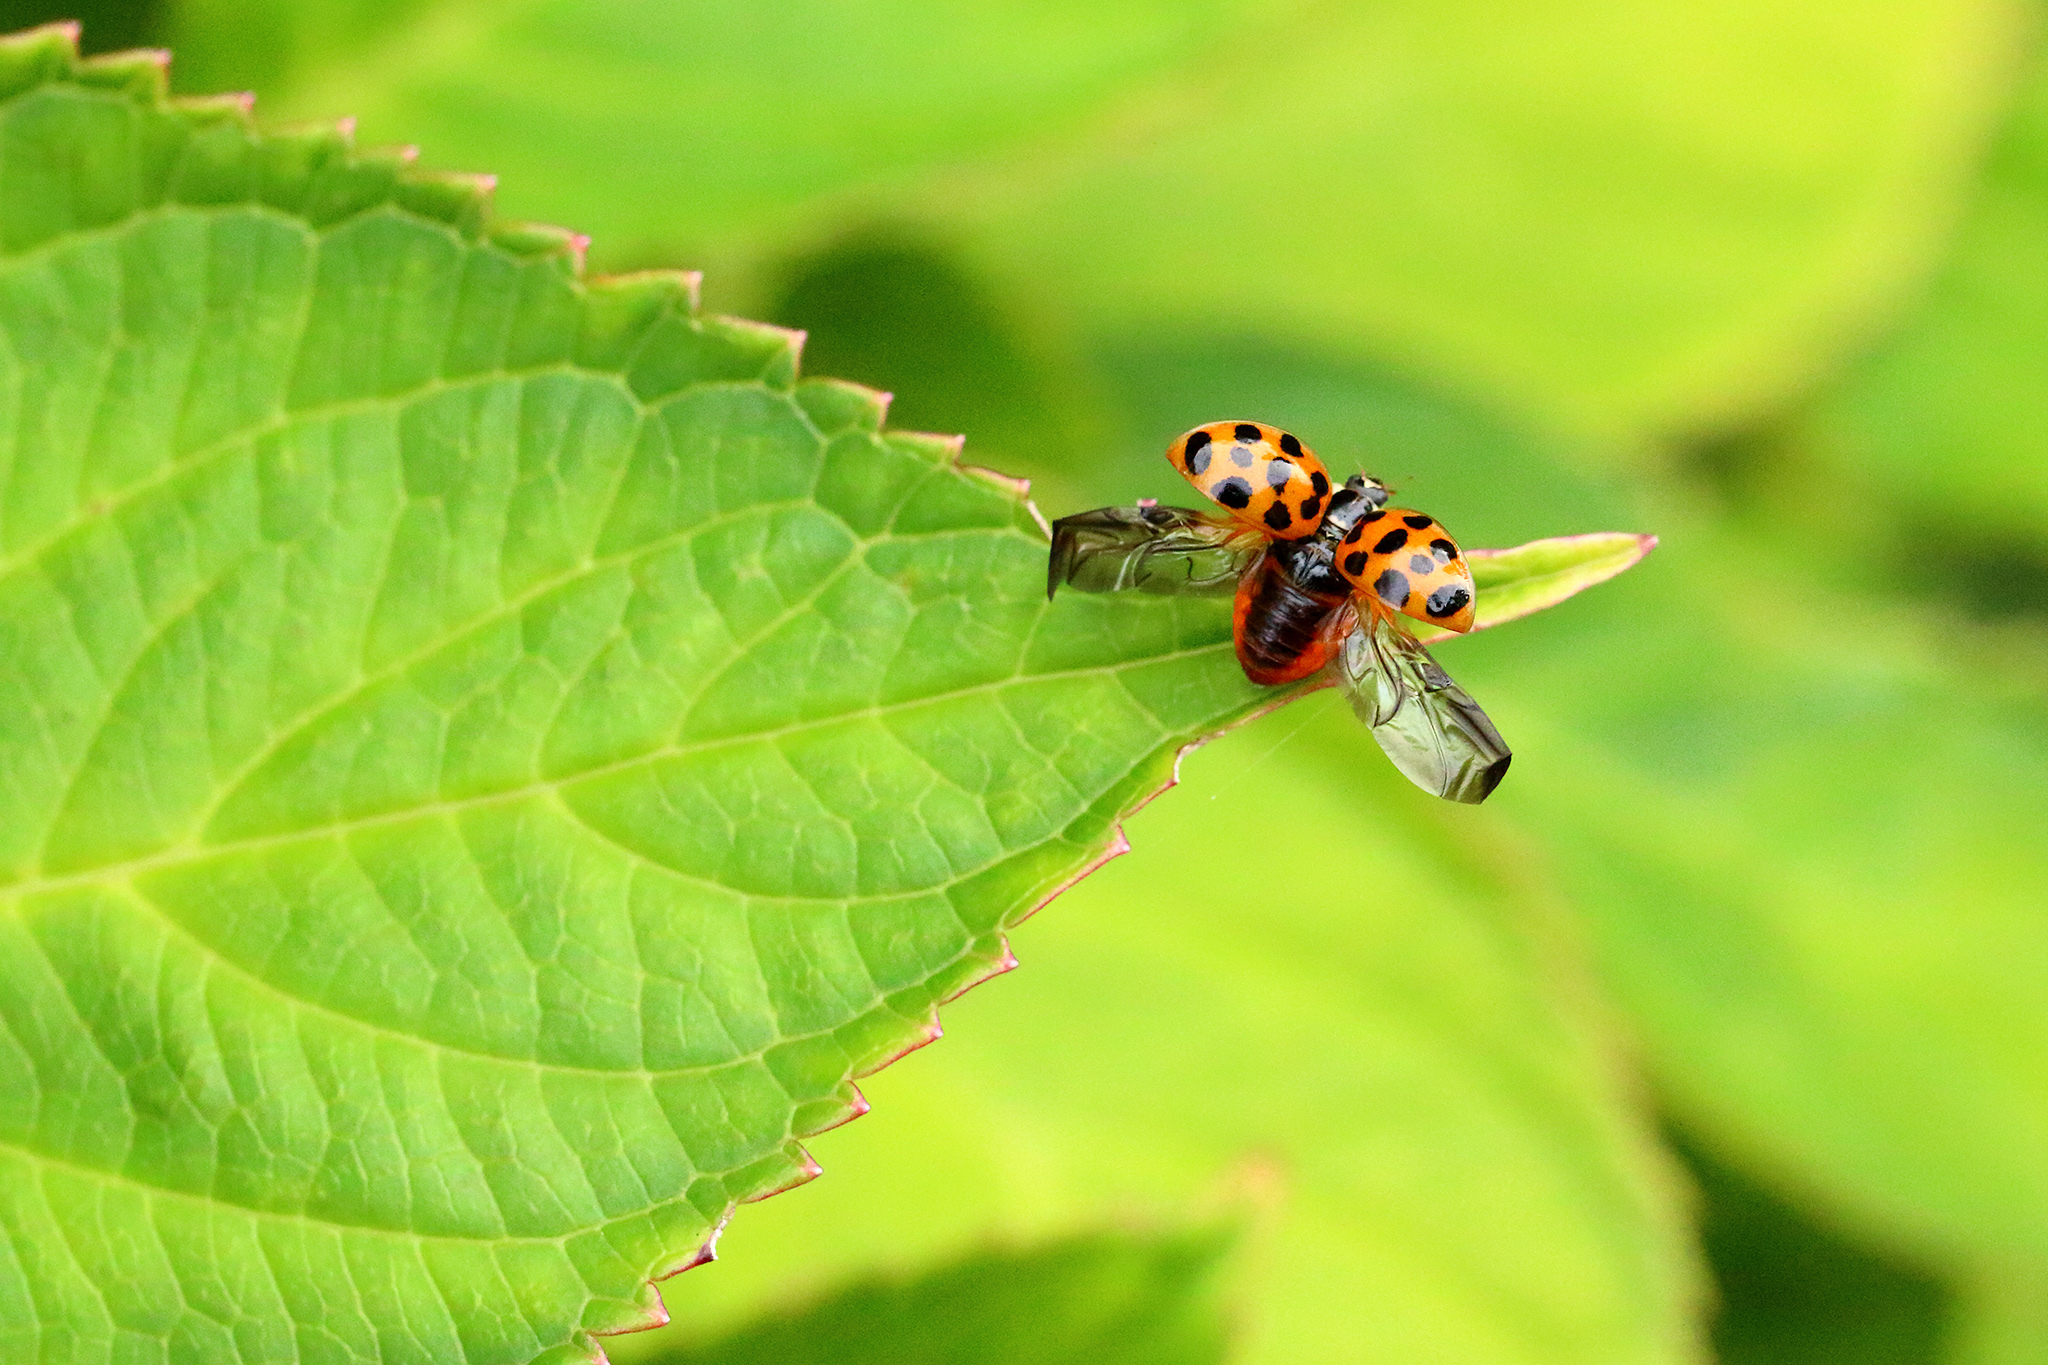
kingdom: Animalia
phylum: Arthropoda
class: Insecta
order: Coleoptera
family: Coccinellidae
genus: Harmonia
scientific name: Harmonia axyridis
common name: Harlequin ladybird
